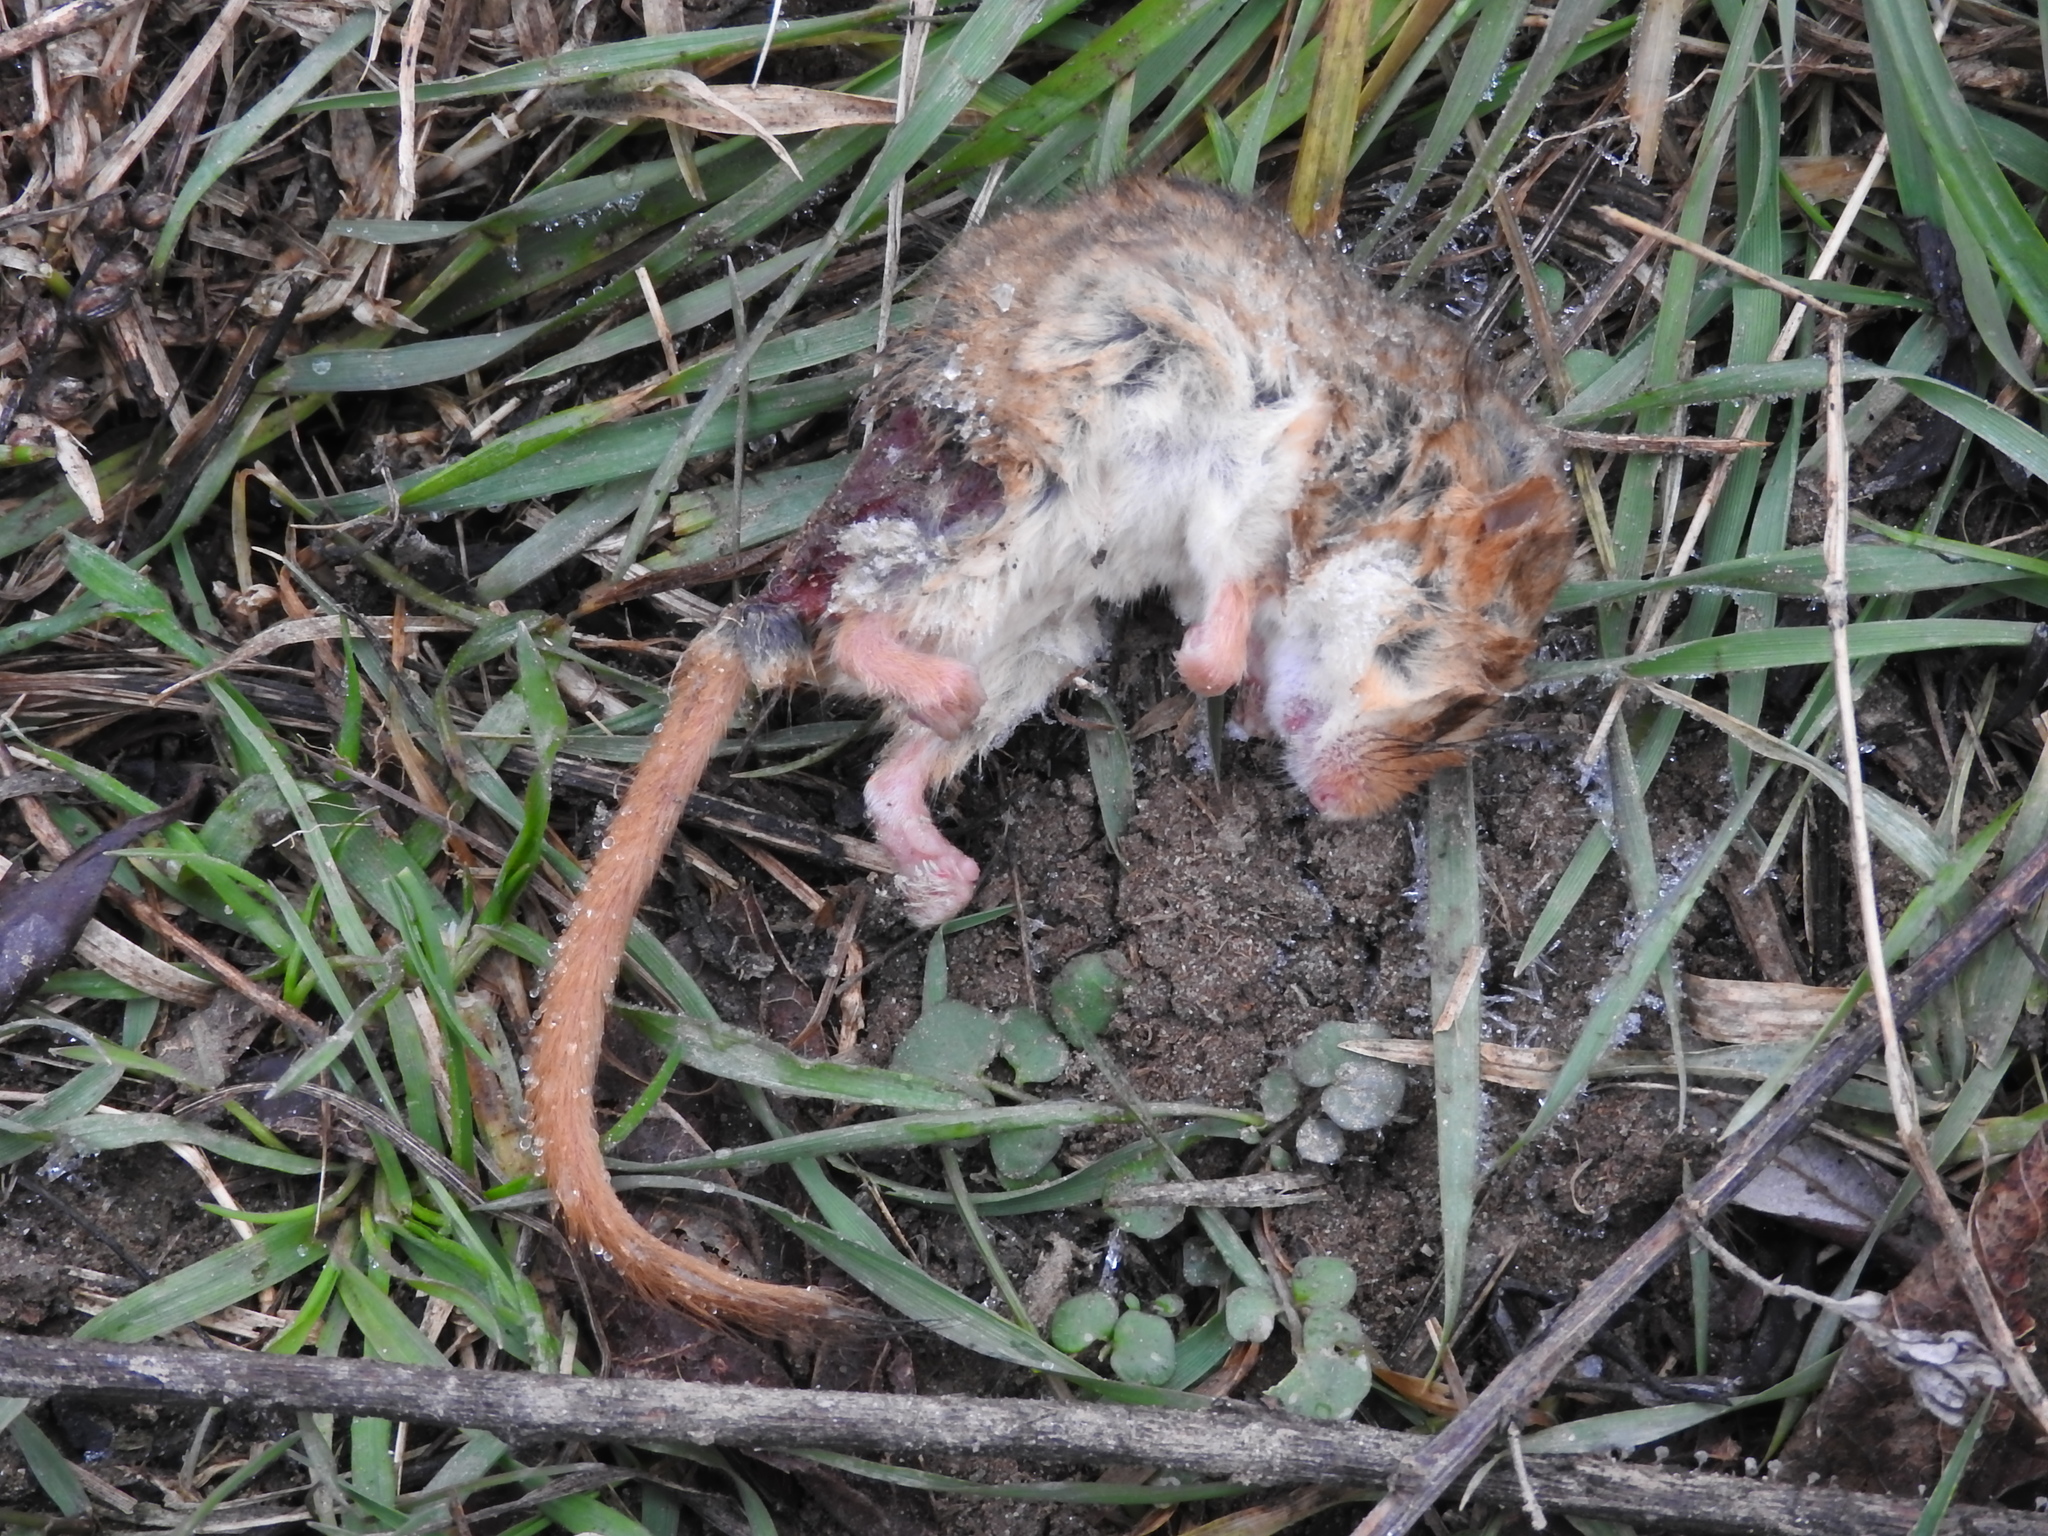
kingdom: Animalia
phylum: Chordata
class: Mammalia
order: Rodentia
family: Gliridae
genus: Muscardinus
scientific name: Muscardinus avellanarius
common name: Hazel dormouse
